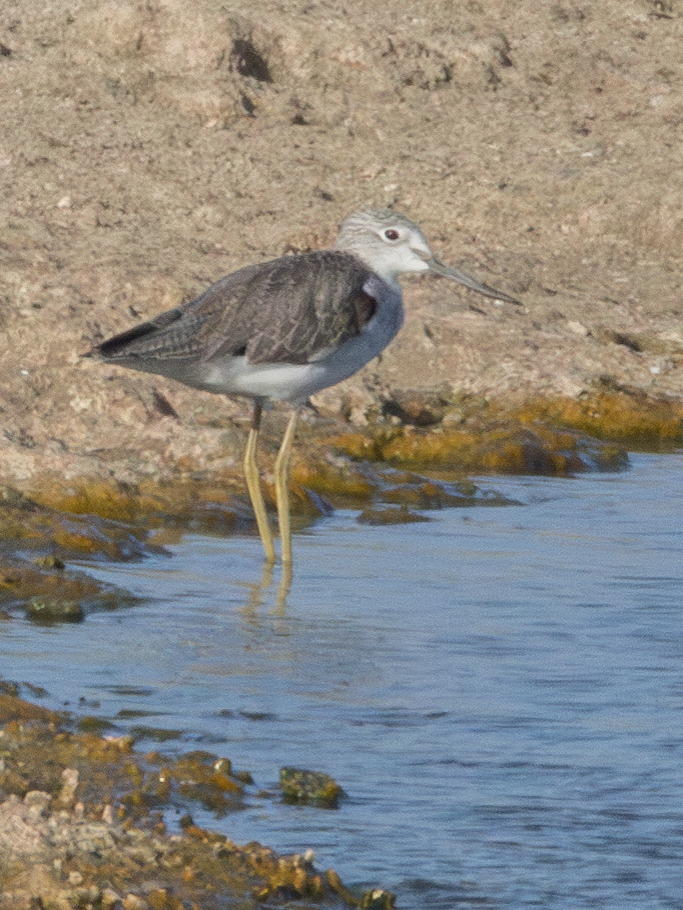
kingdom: Animalia
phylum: Chordata
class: Aves
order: Charadriiformes
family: Scolopacidae
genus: Tringa
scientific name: Tringa nebularia
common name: Common greenshank
